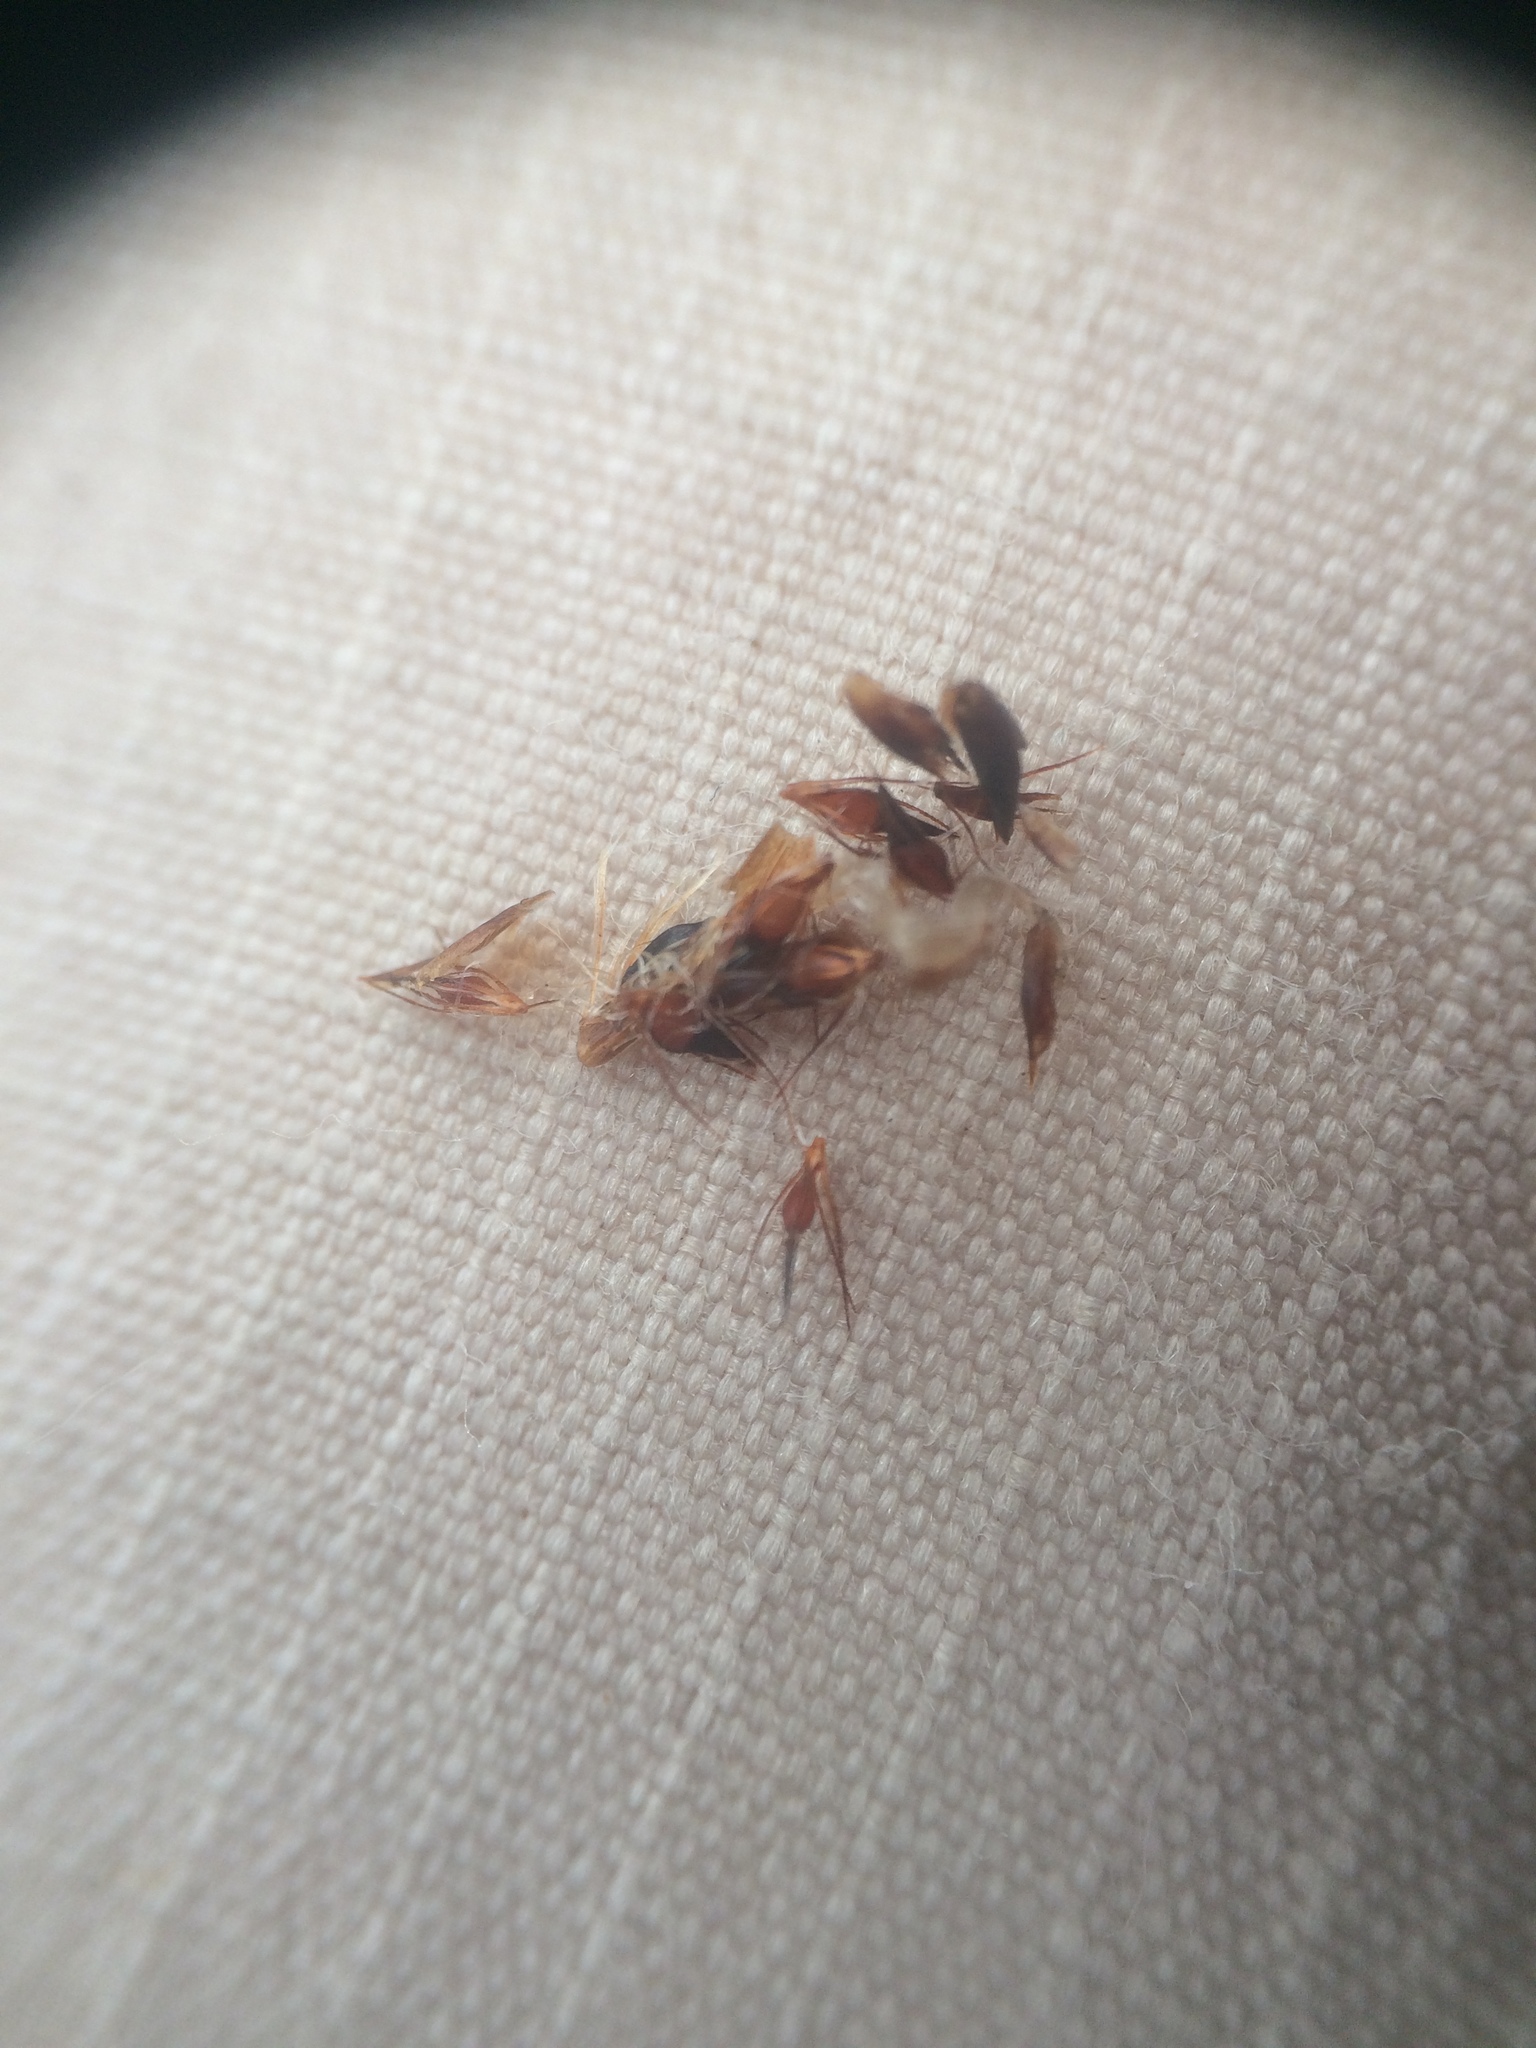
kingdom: Plantae
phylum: Tracheophyta
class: Liliopsida
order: Poales
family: Cyperaceae
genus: Rhynchospora
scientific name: Rhynchospora capitellata
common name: Brownish beaksedge
